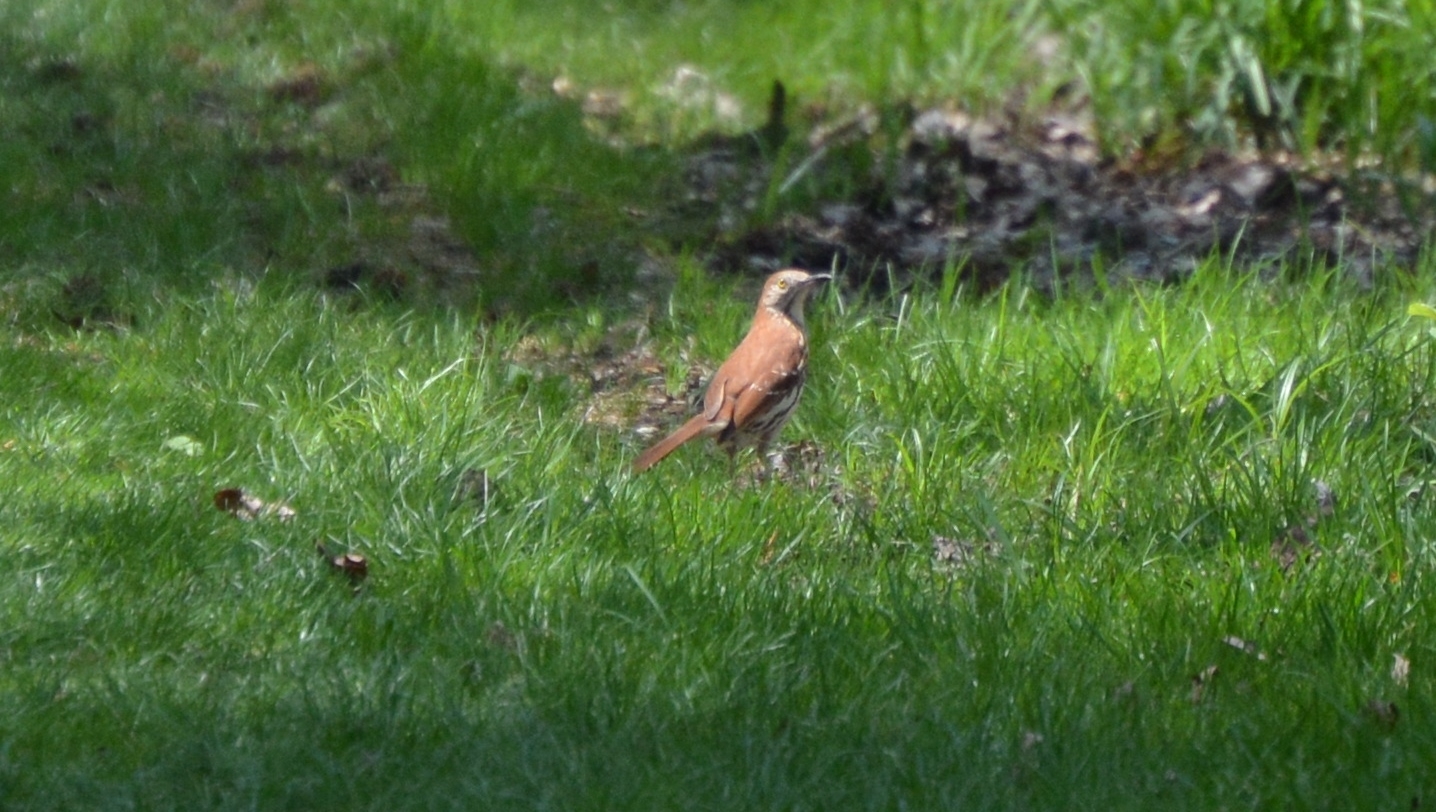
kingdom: Animalia
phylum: Chordata
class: Aves
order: Passeriformes
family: Mimidae
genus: Toxostoma
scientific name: Toxostoma rufum
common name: Brown thrasher
